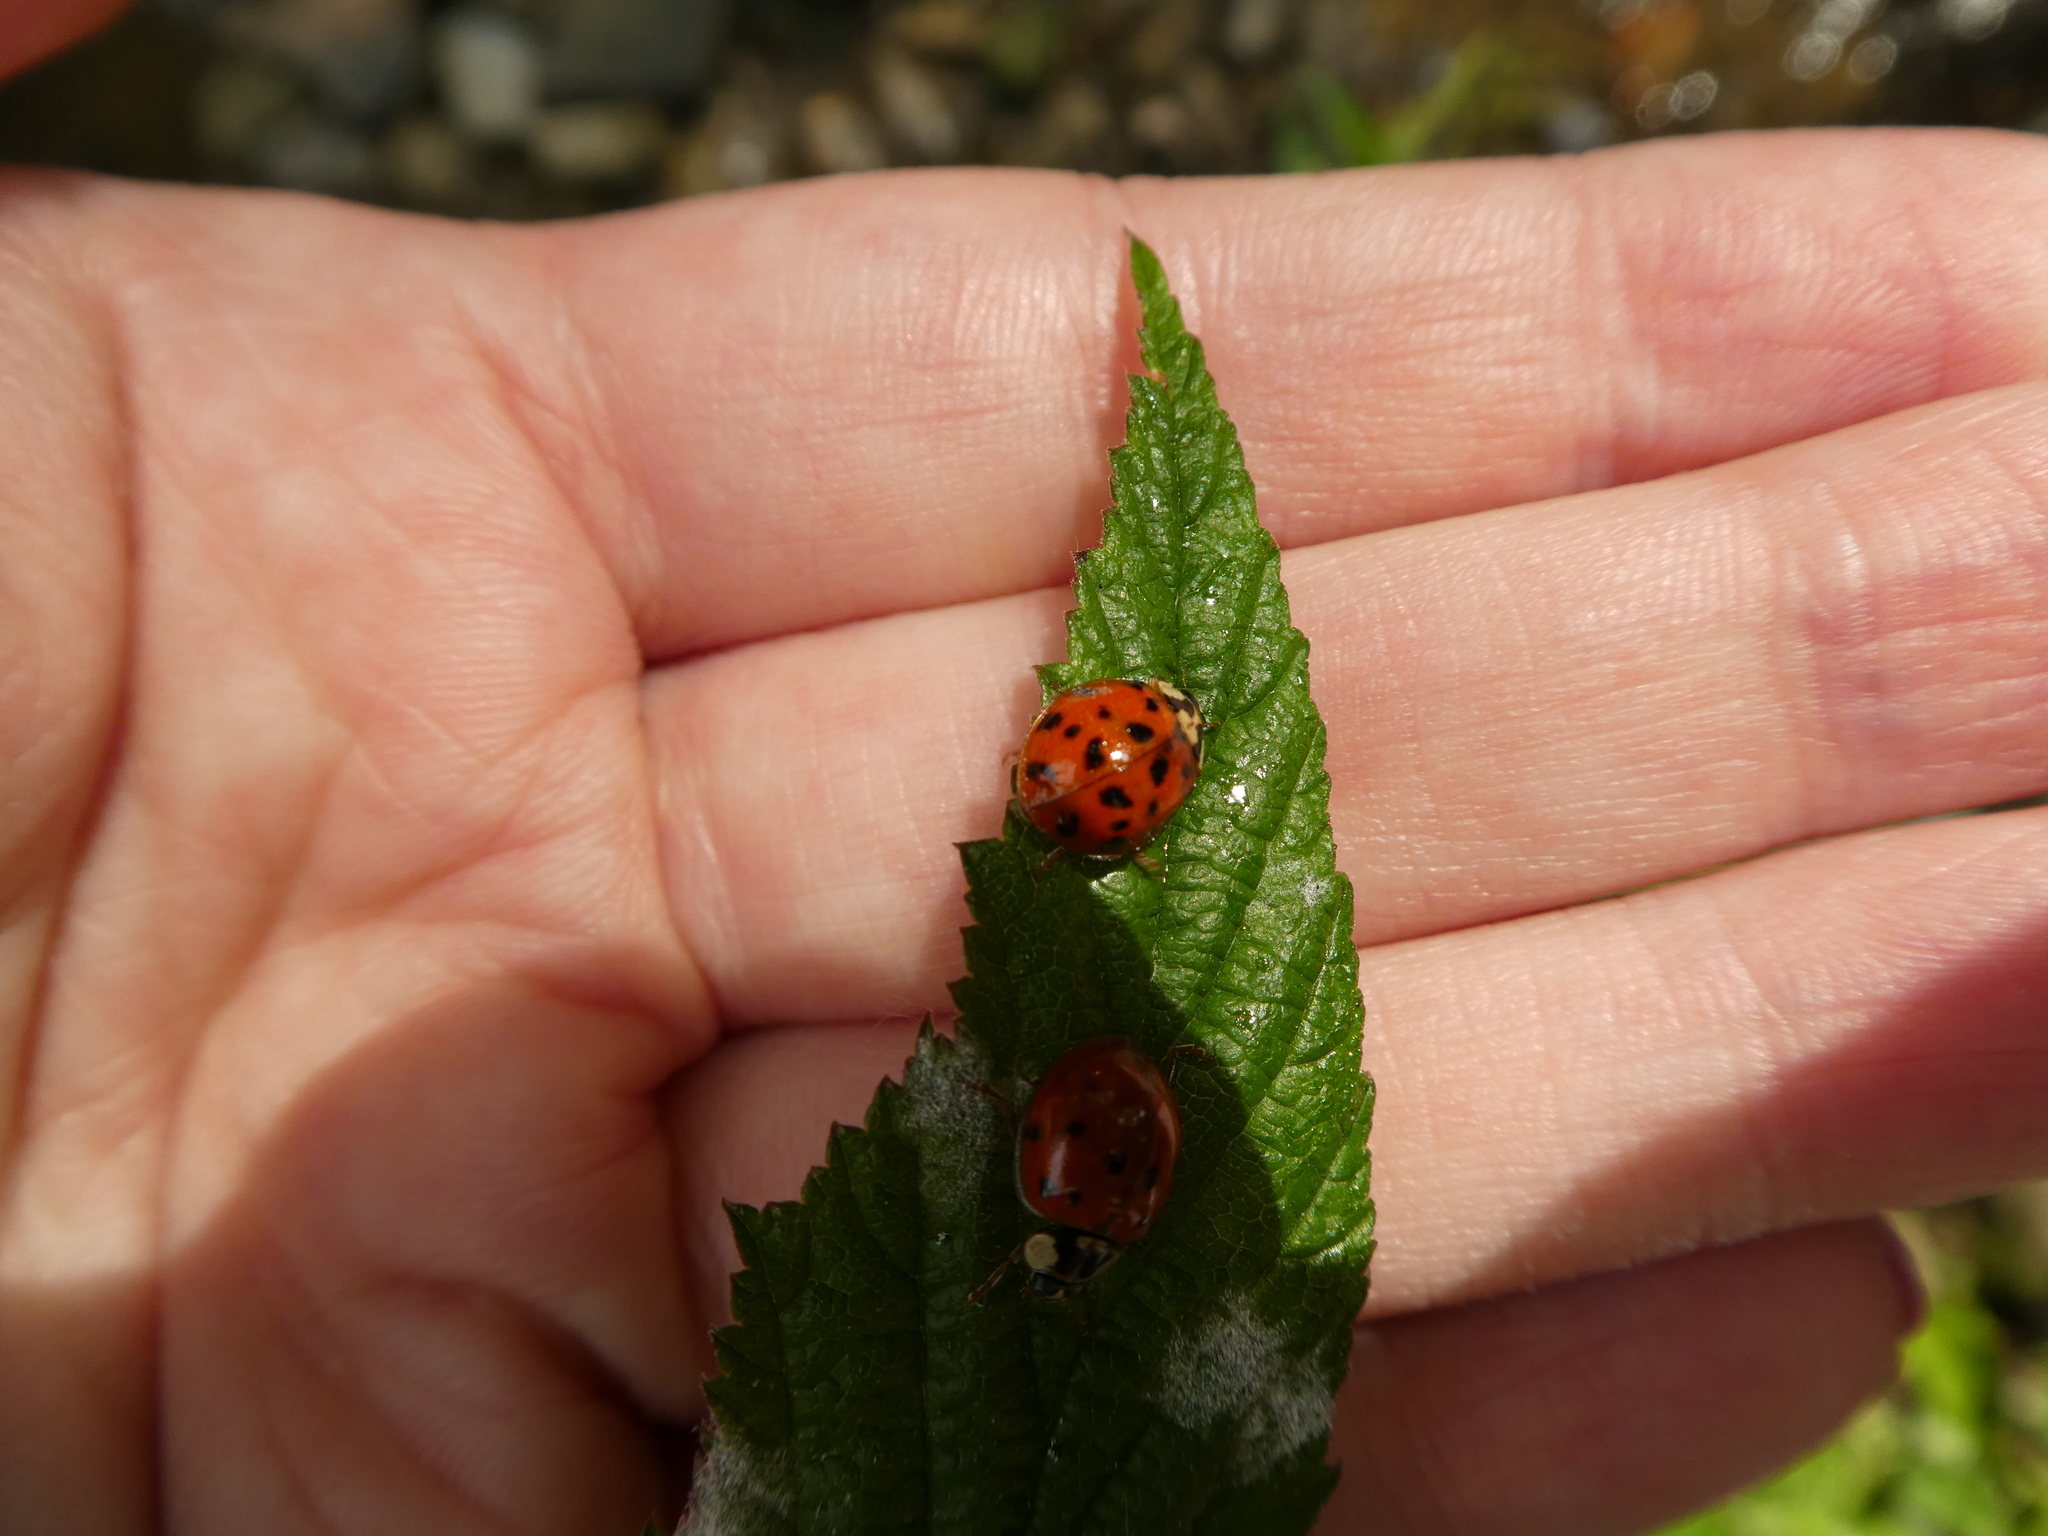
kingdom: Animalia
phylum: Arthropoda
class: Insecta
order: Coleoptera
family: Coccinellidae
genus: Harmonia
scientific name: Harmonia axyridis
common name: Harlequin ladybird
